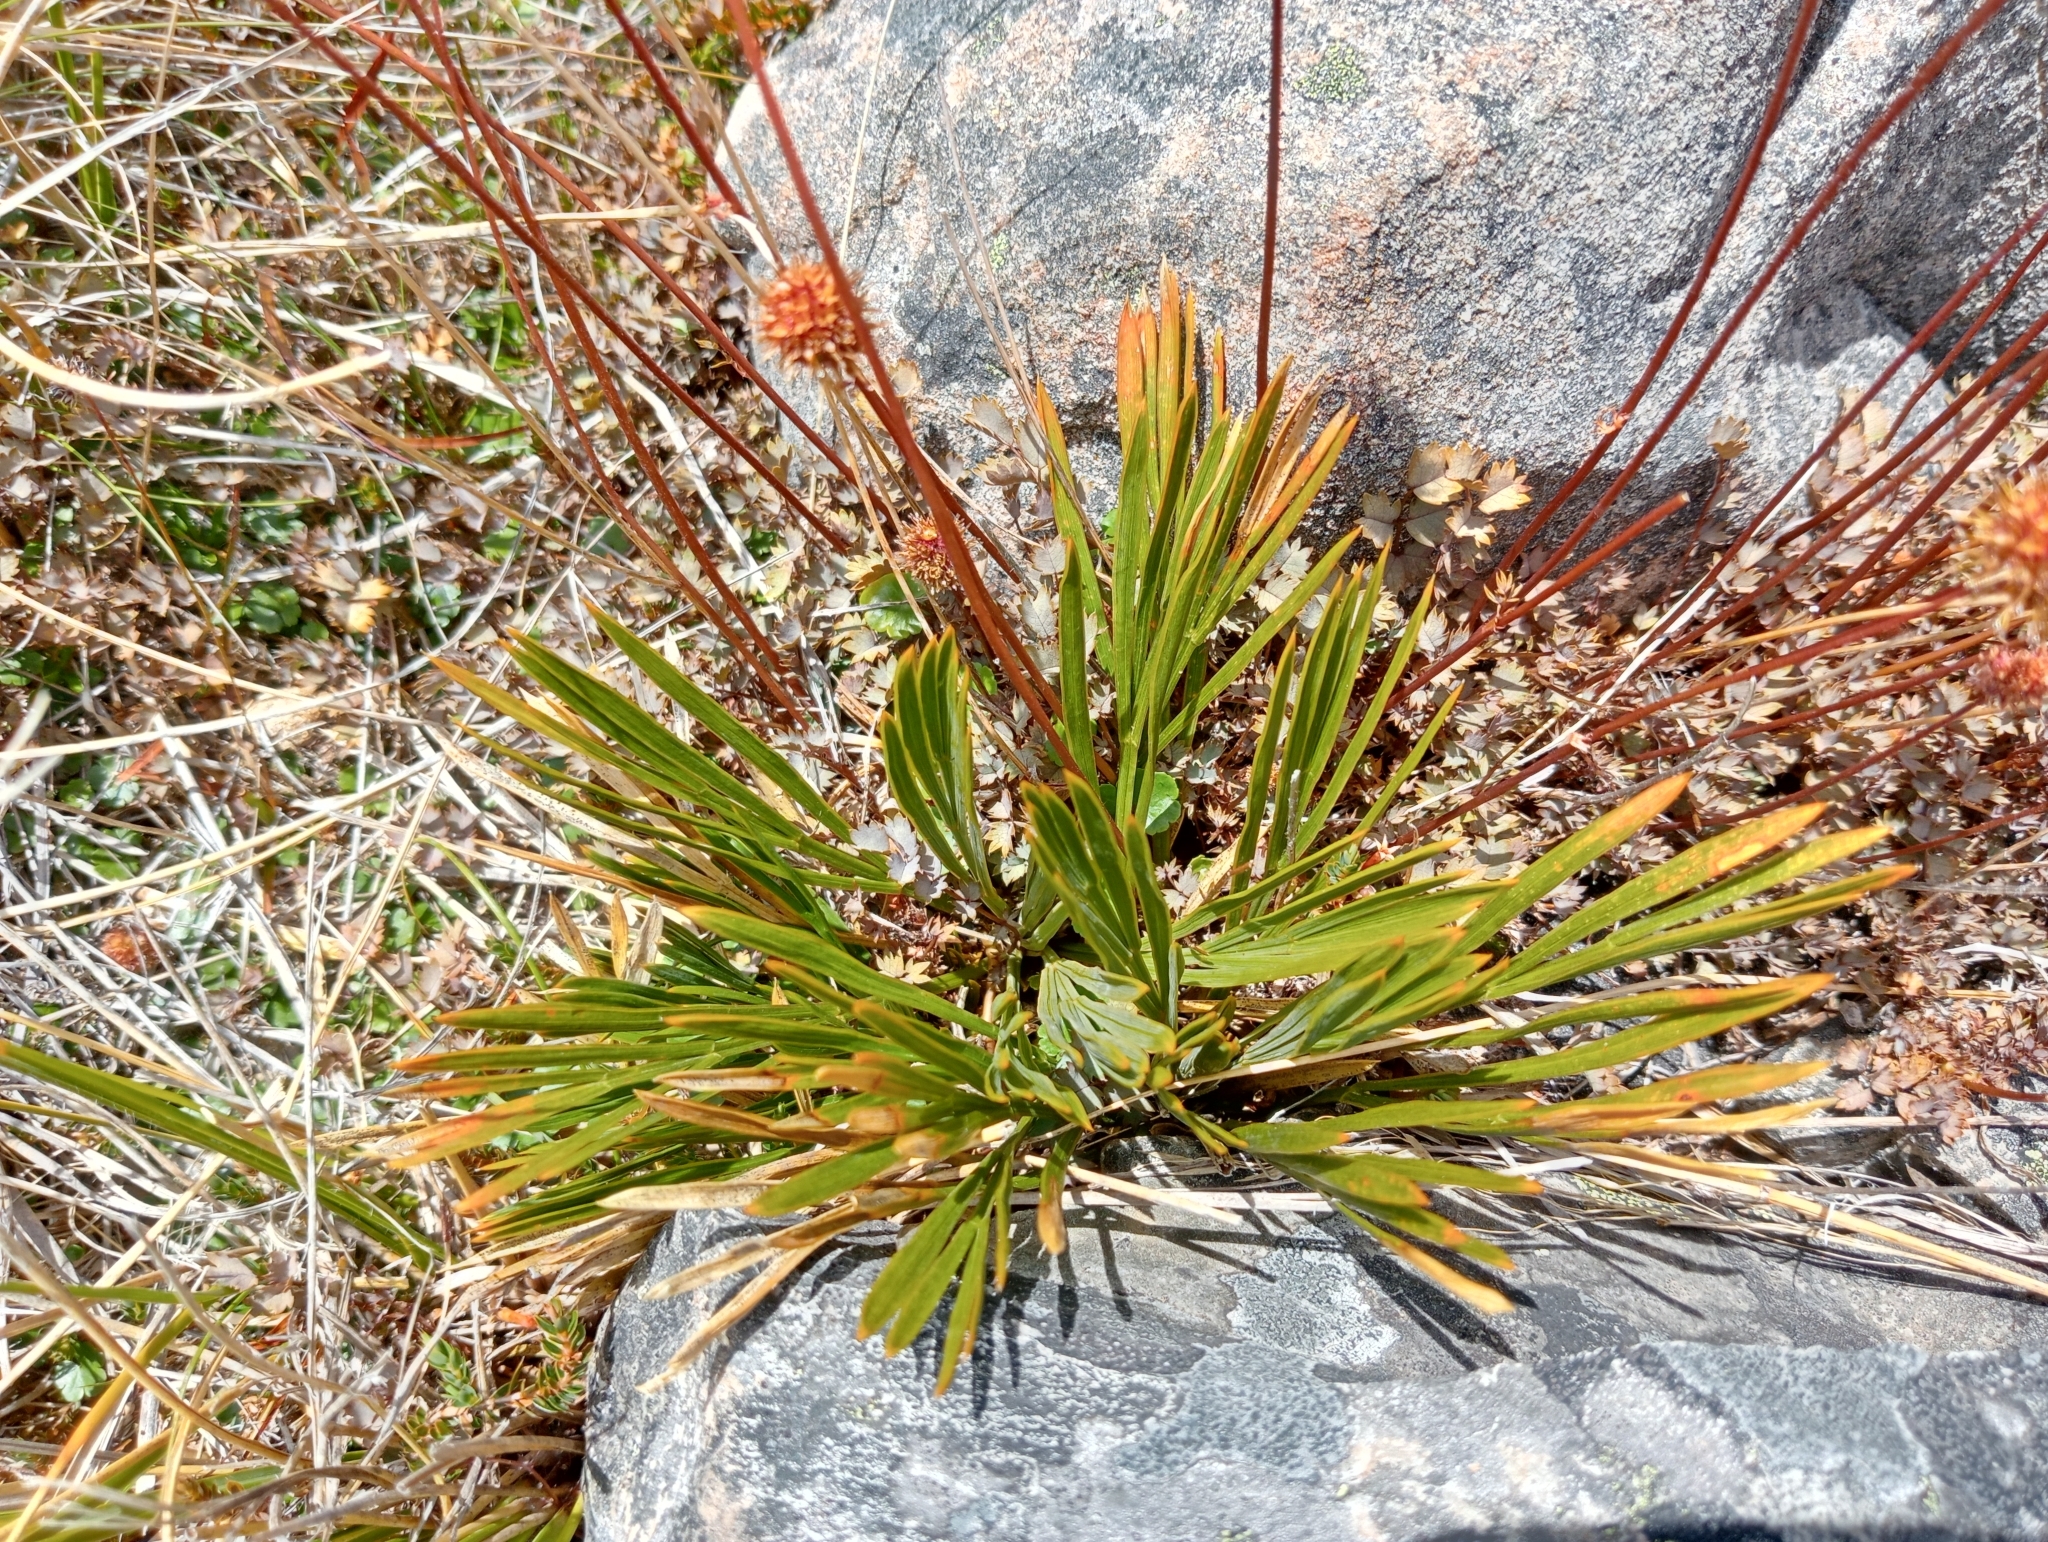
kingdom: Plantae
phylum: Tracheophyta
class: Magnoliopsida
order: Apiales
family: Apiaceae
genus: Aciphylla
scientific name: Aciphylla montana
